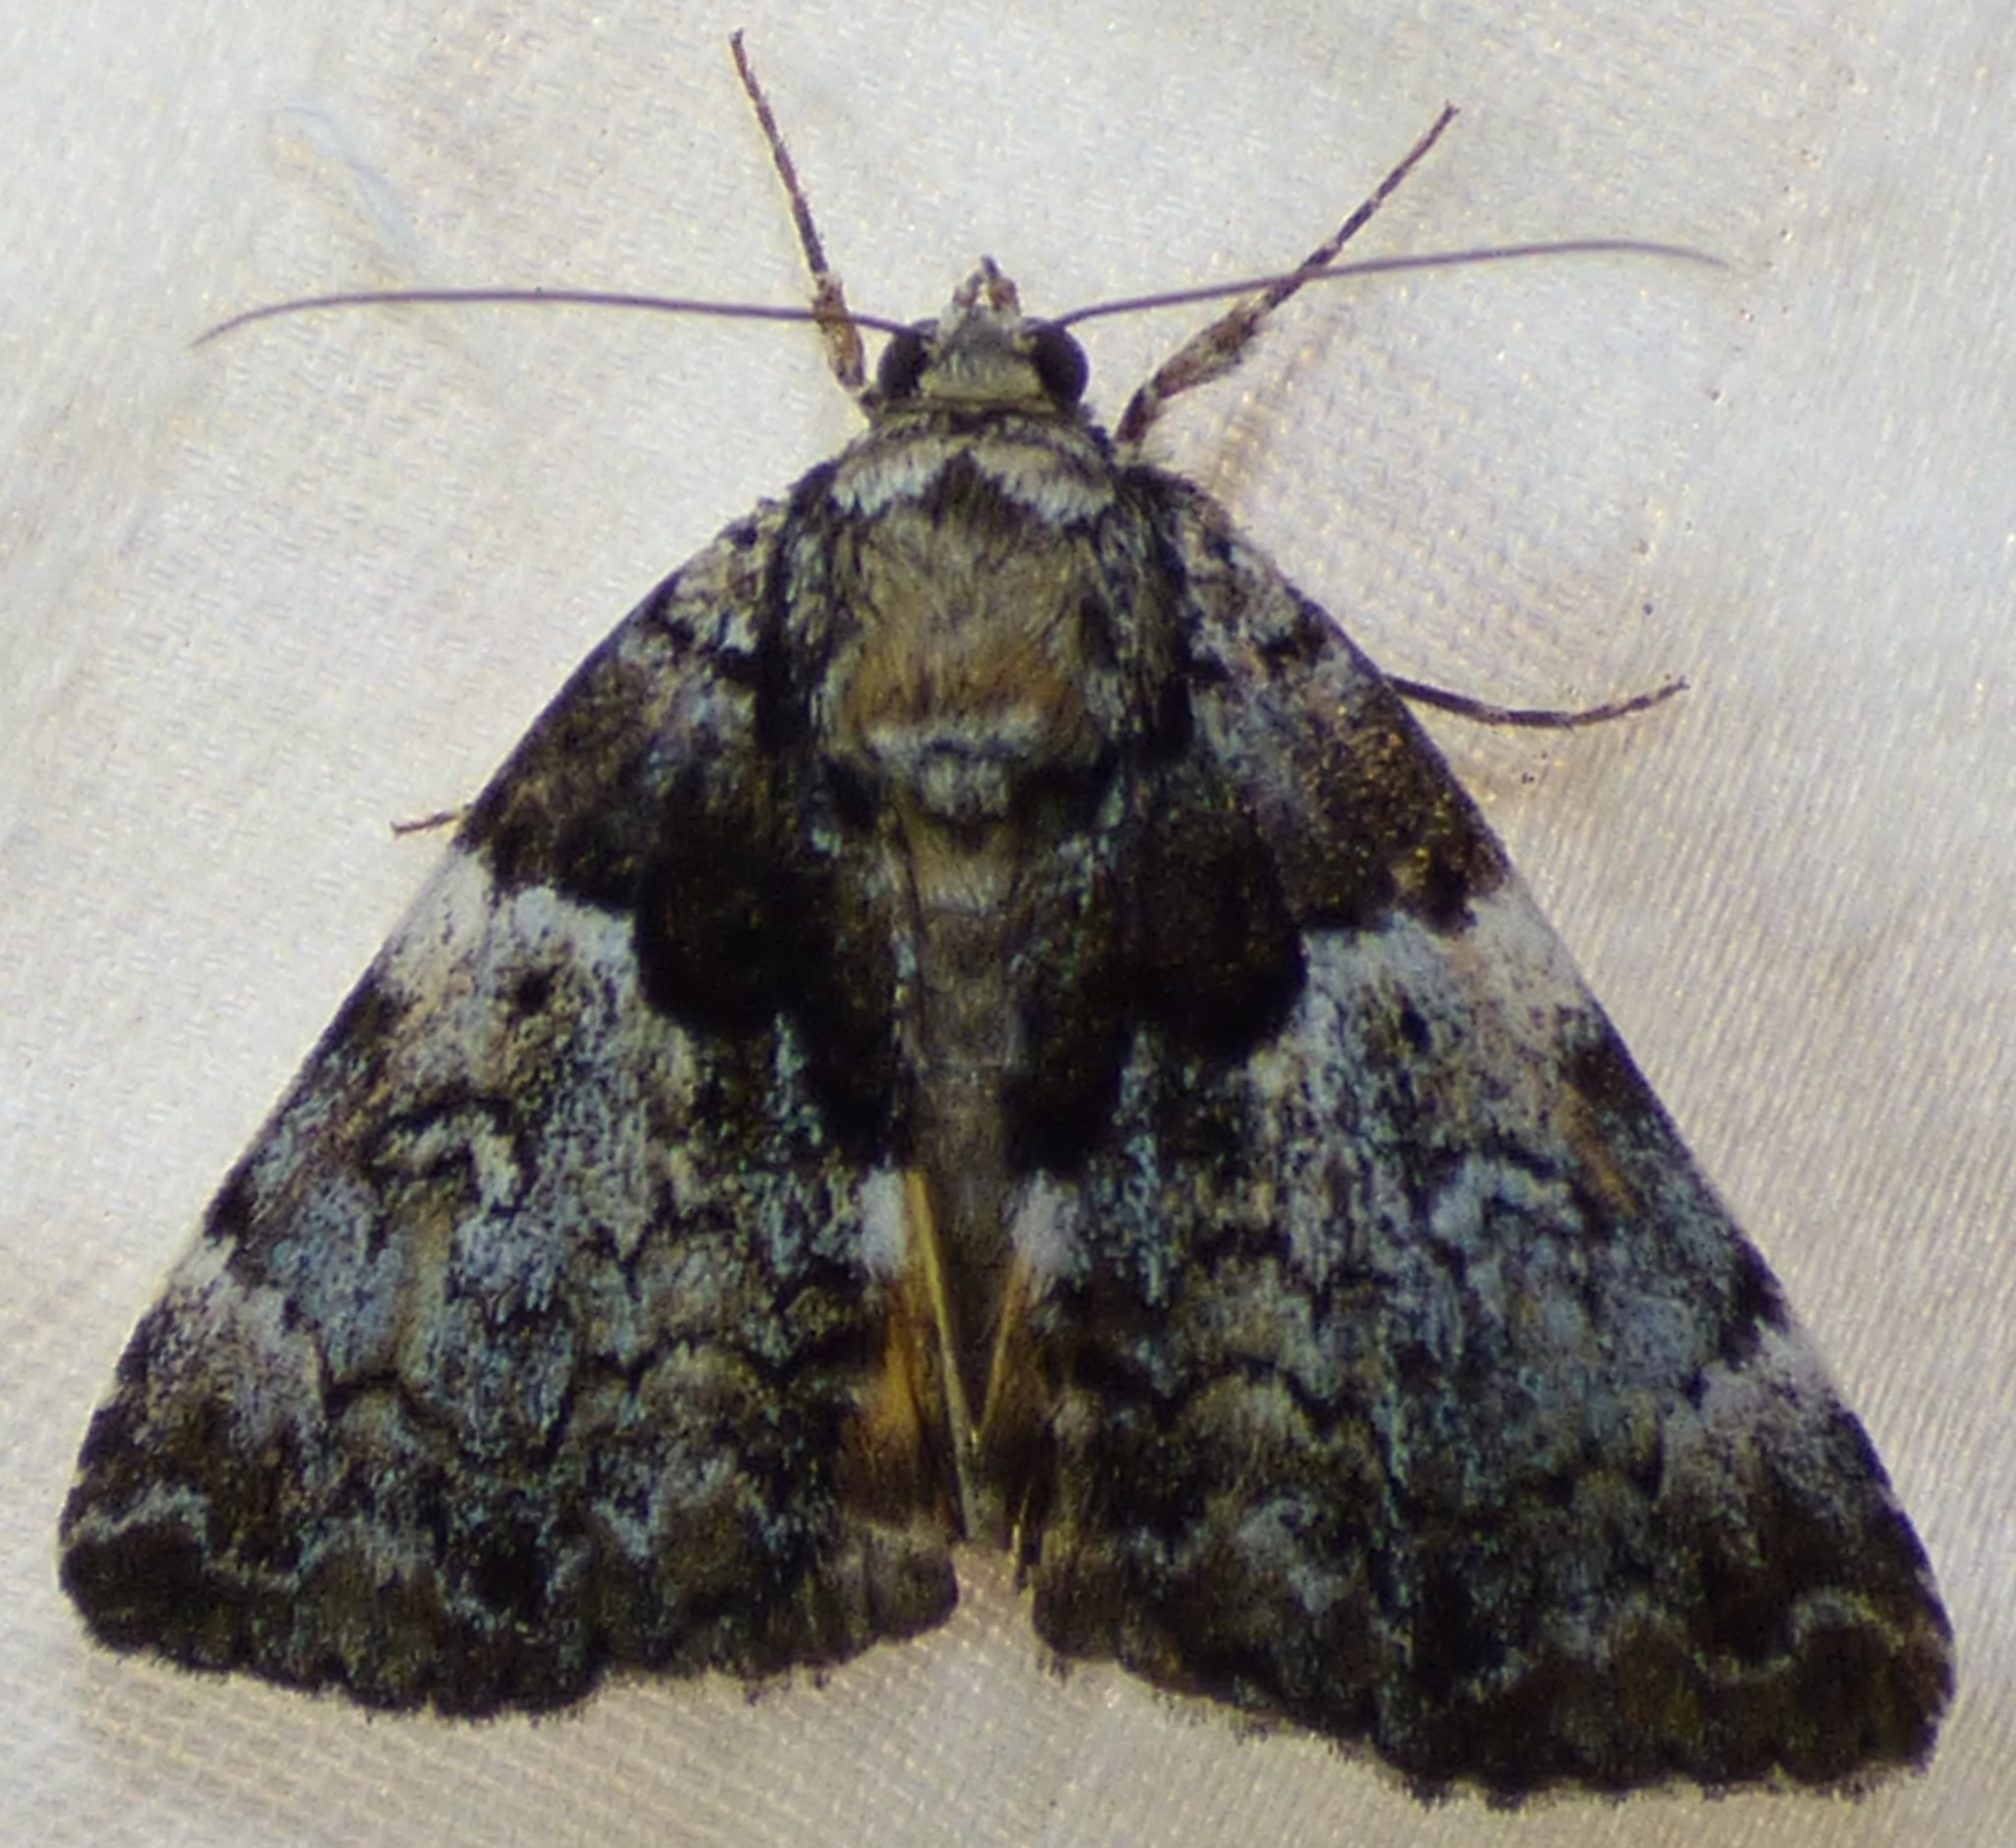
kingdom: Animalia
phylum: Arthropoda
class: Insecta
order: Lepidoptera
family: Erebidae
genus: Allotria
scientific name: Allotria elonympha
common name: False underwing
